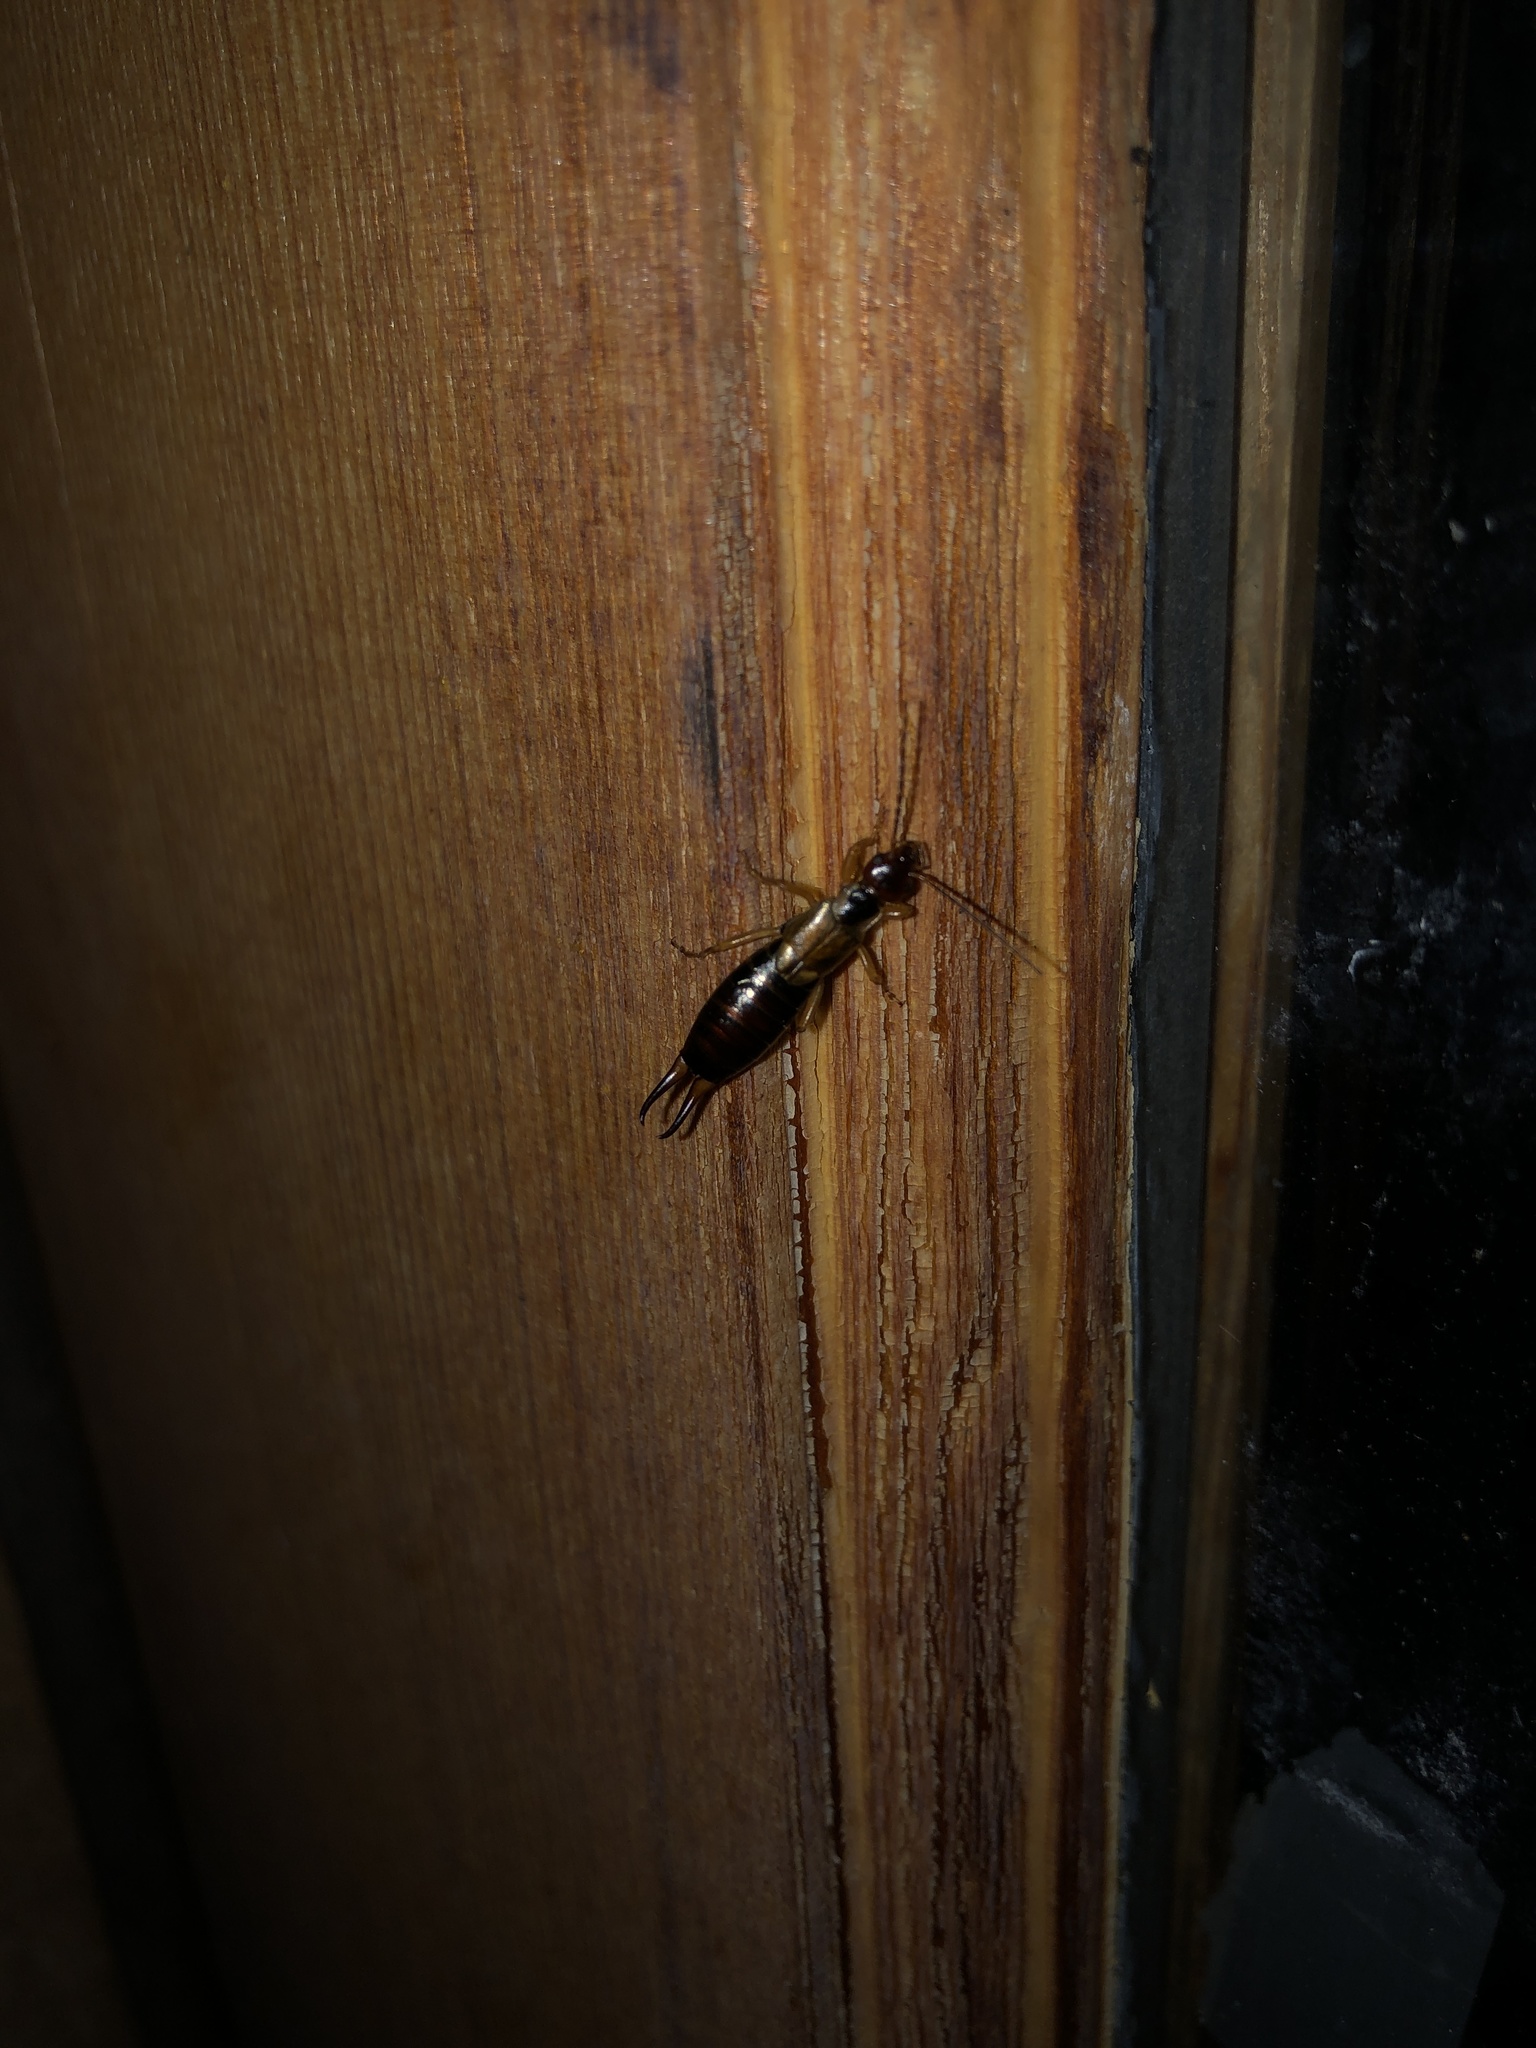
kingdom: Animalia
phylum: Arthropoda
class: Insecta
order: Dermaptera
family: Forficulidae
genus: Forficula
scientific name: Forficula
